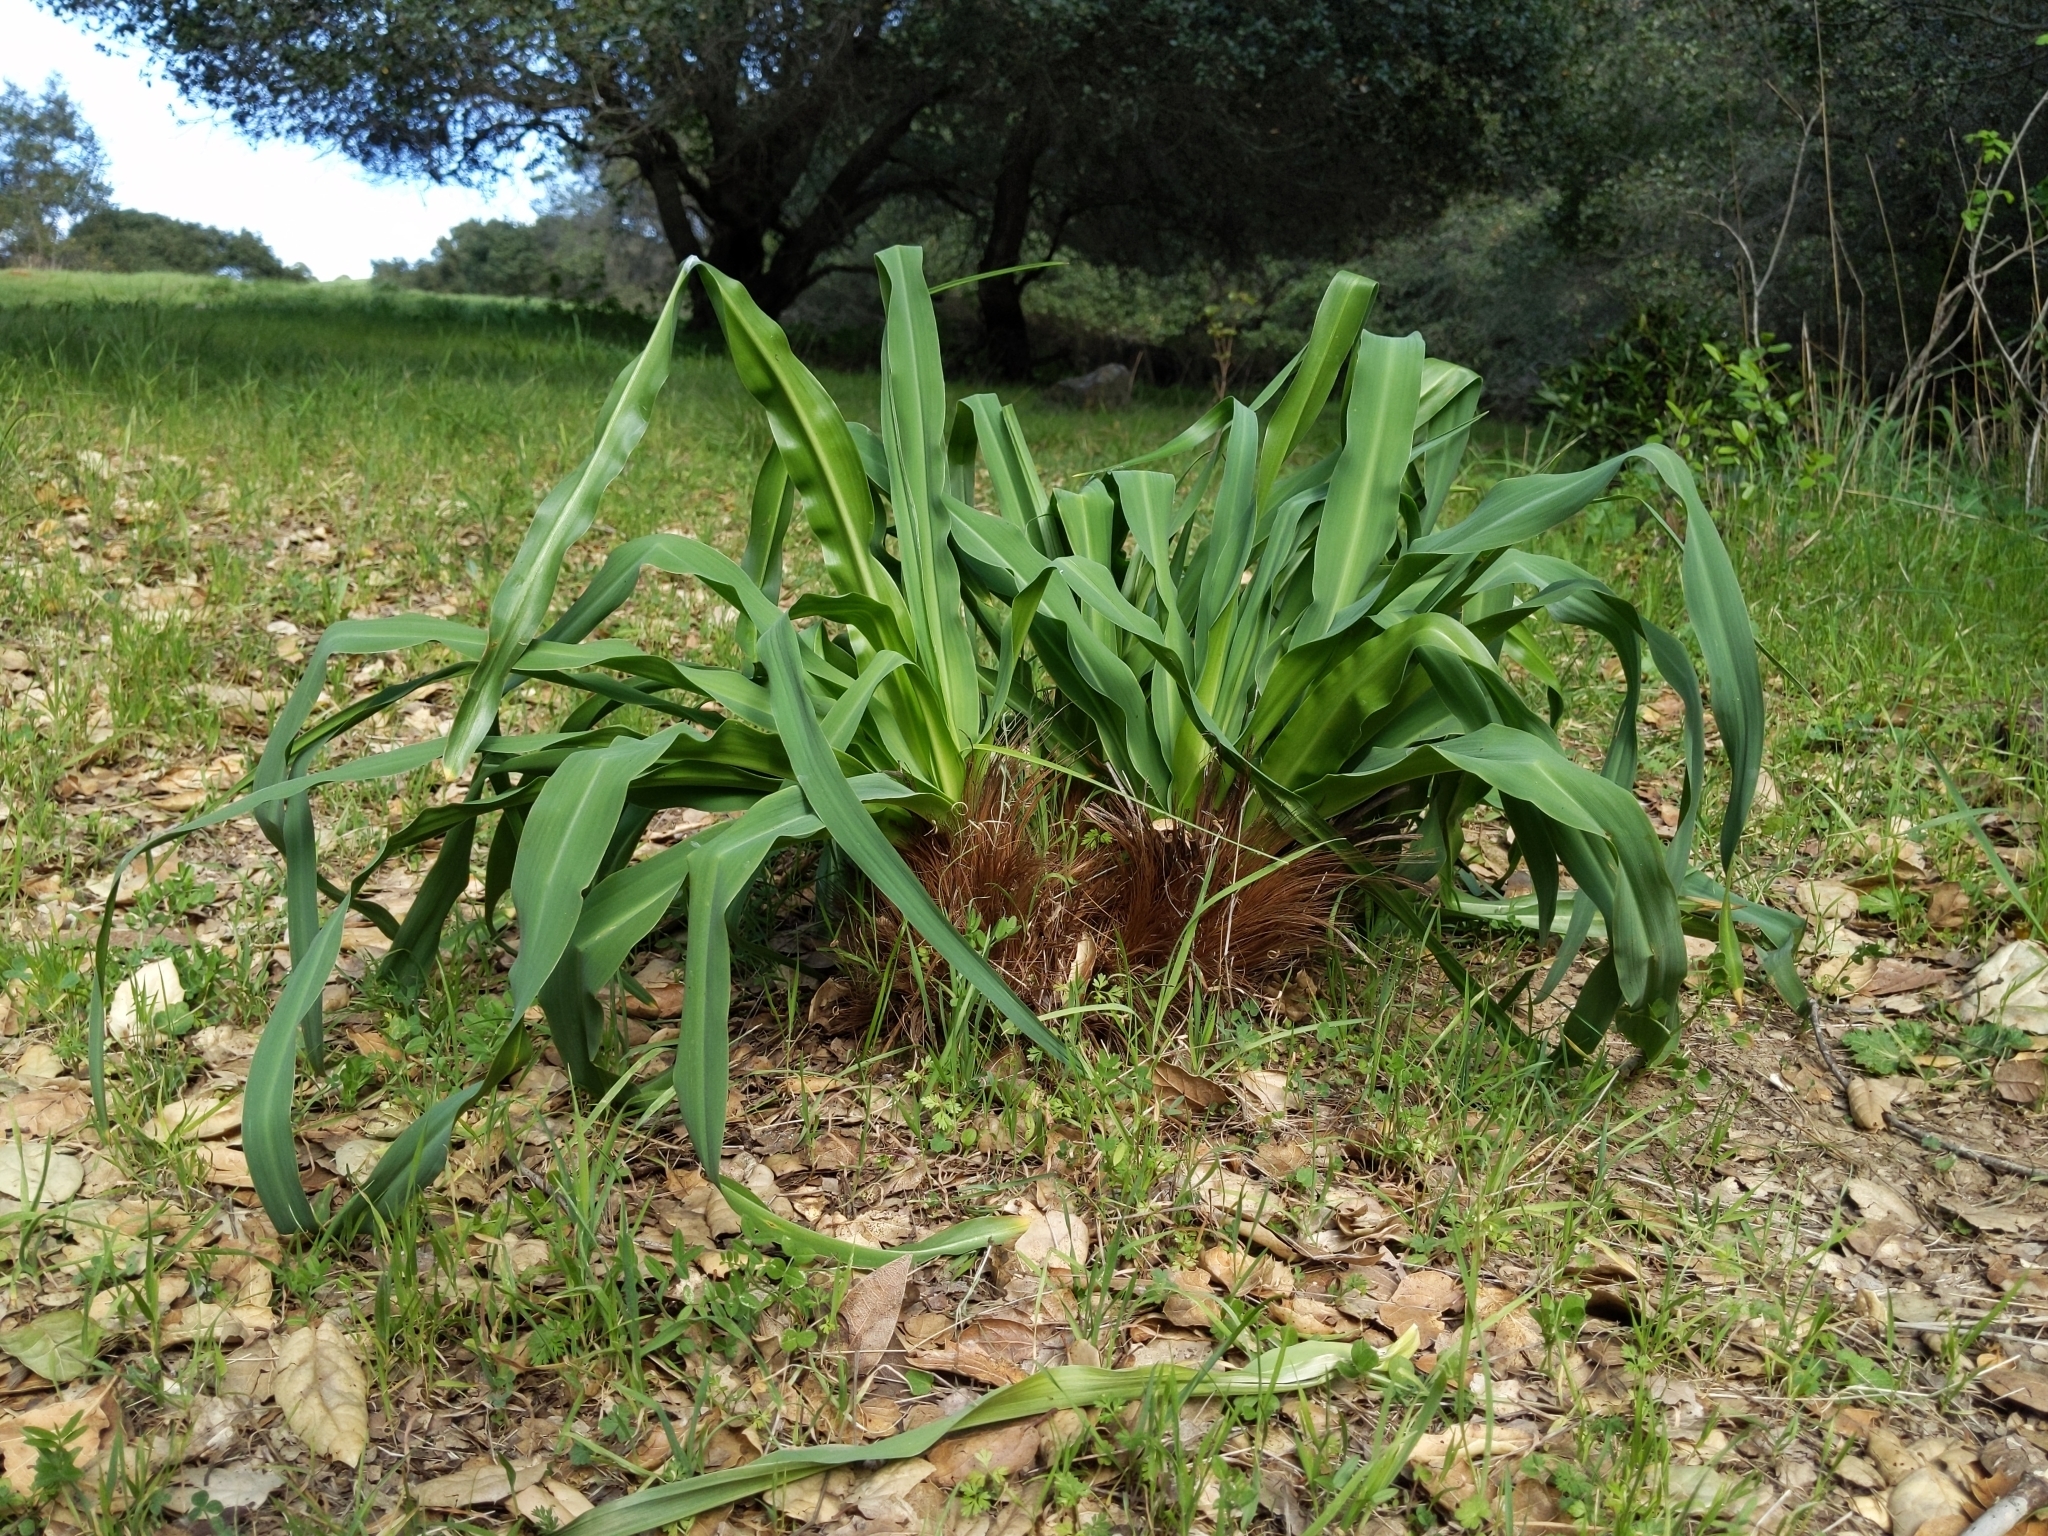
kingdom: Plantae
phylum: Tracheophyta
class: Liliopsida
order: Asparagales
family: Asparagaceae
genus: Chlorogalum
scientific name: Chlorogalum pomeridianum
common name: Amole
